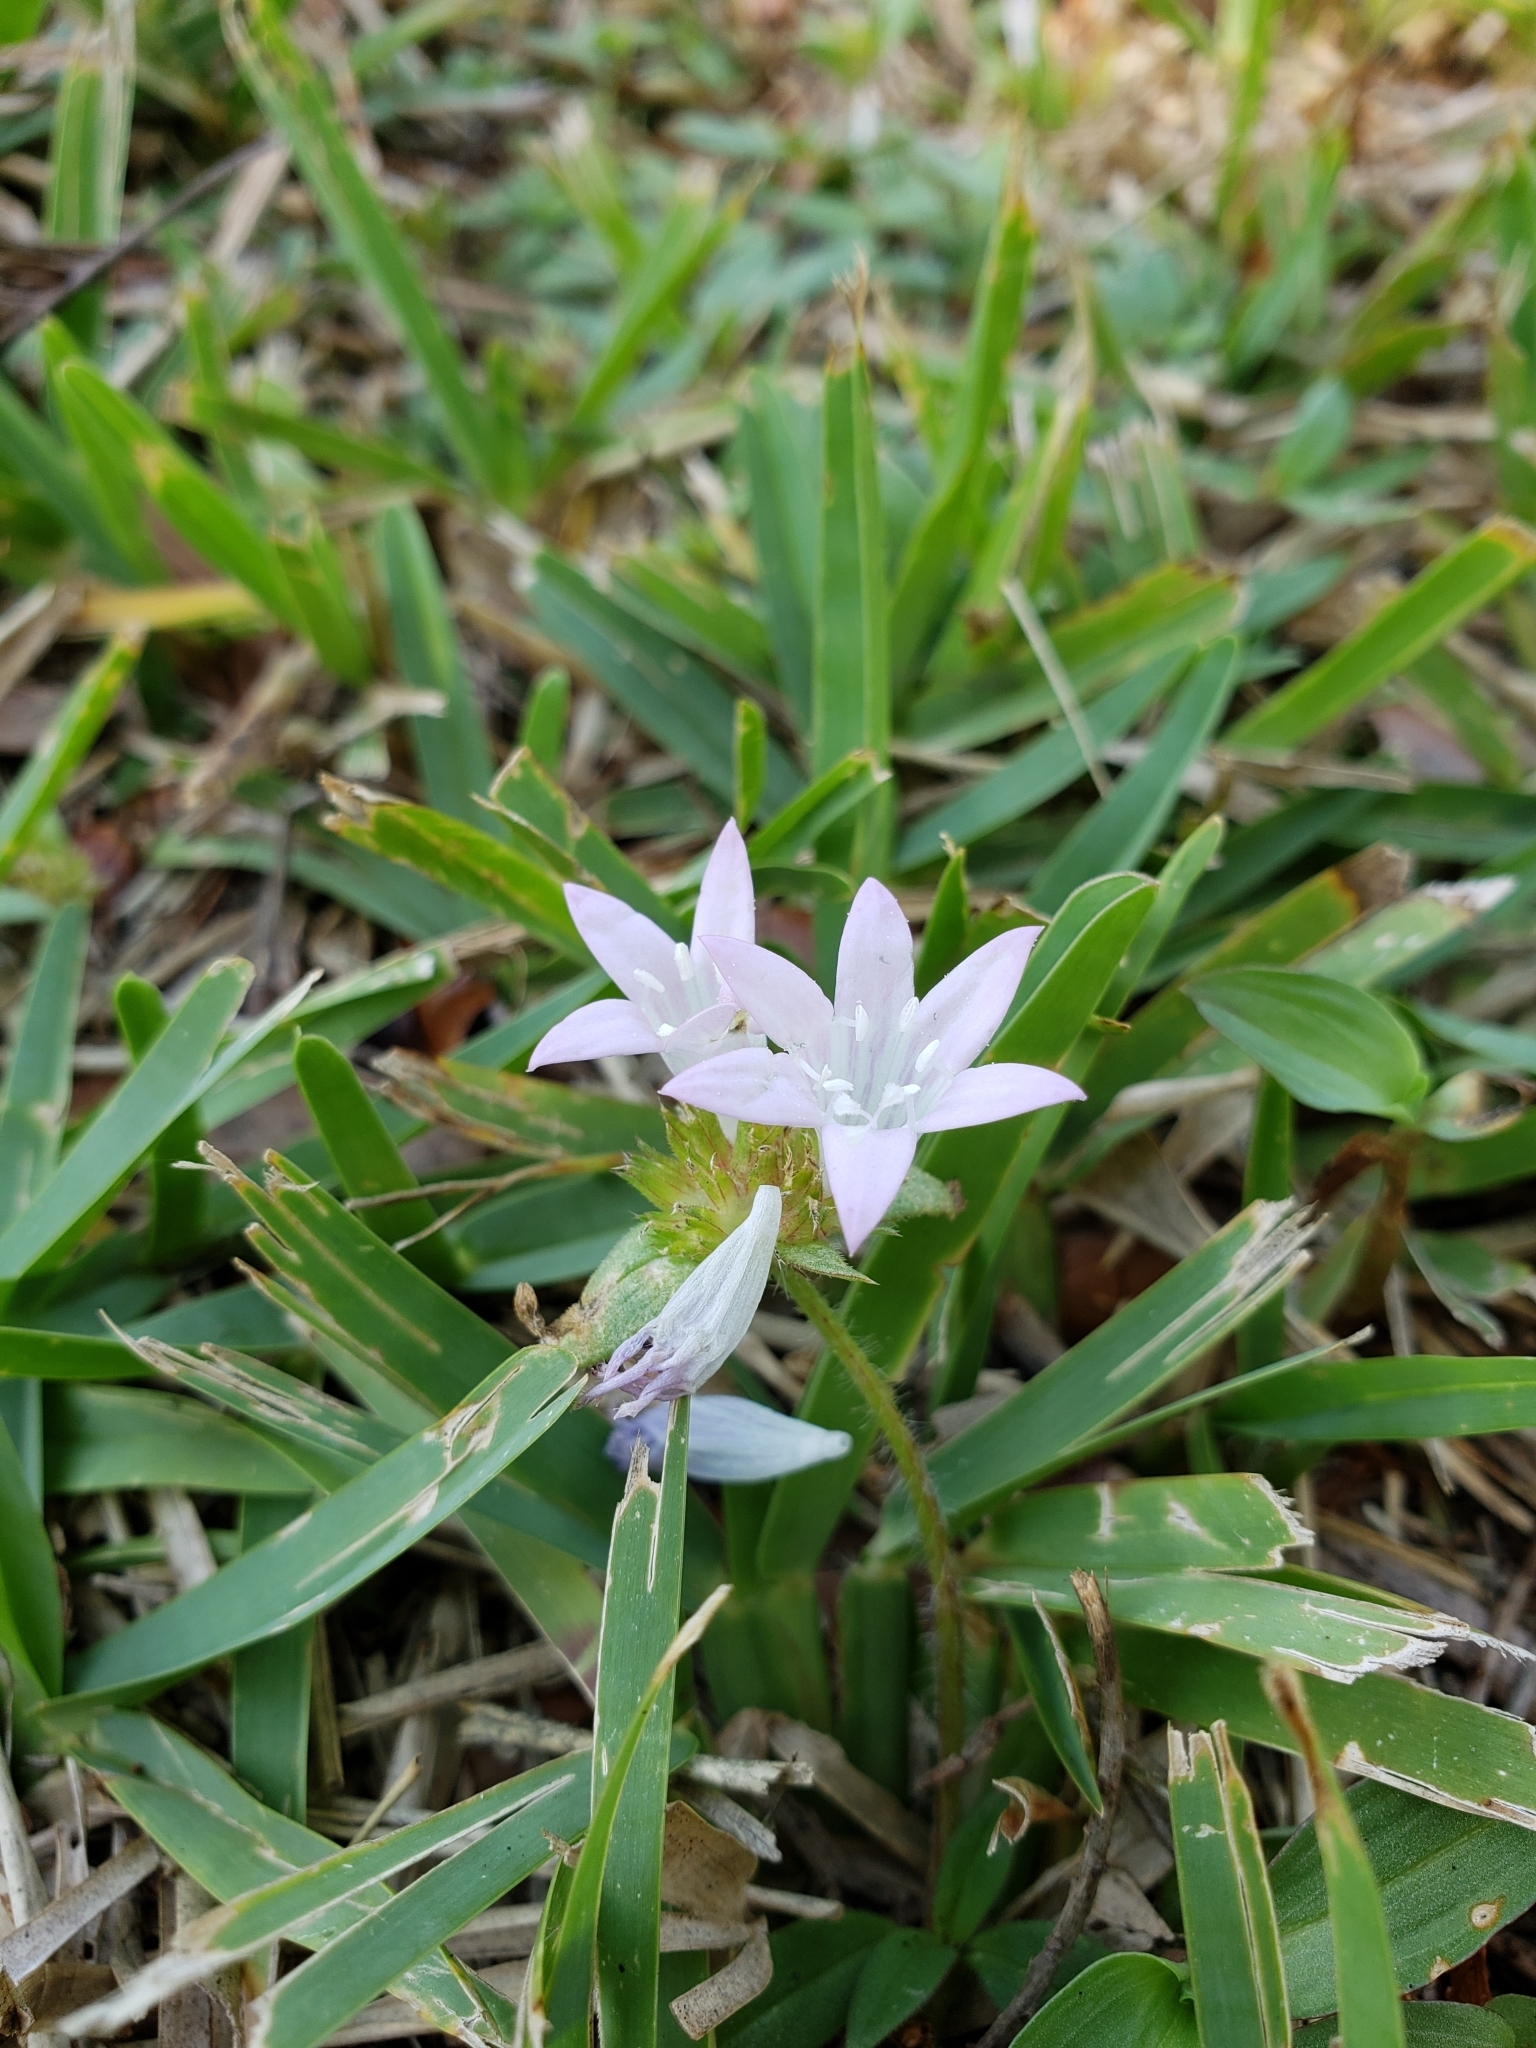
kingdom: Plantae
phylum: Tracheophyta
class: Magnoliopsida
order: Gentianales
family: Rubiaceae
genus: Richardia
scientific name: Richardia grandiflora
